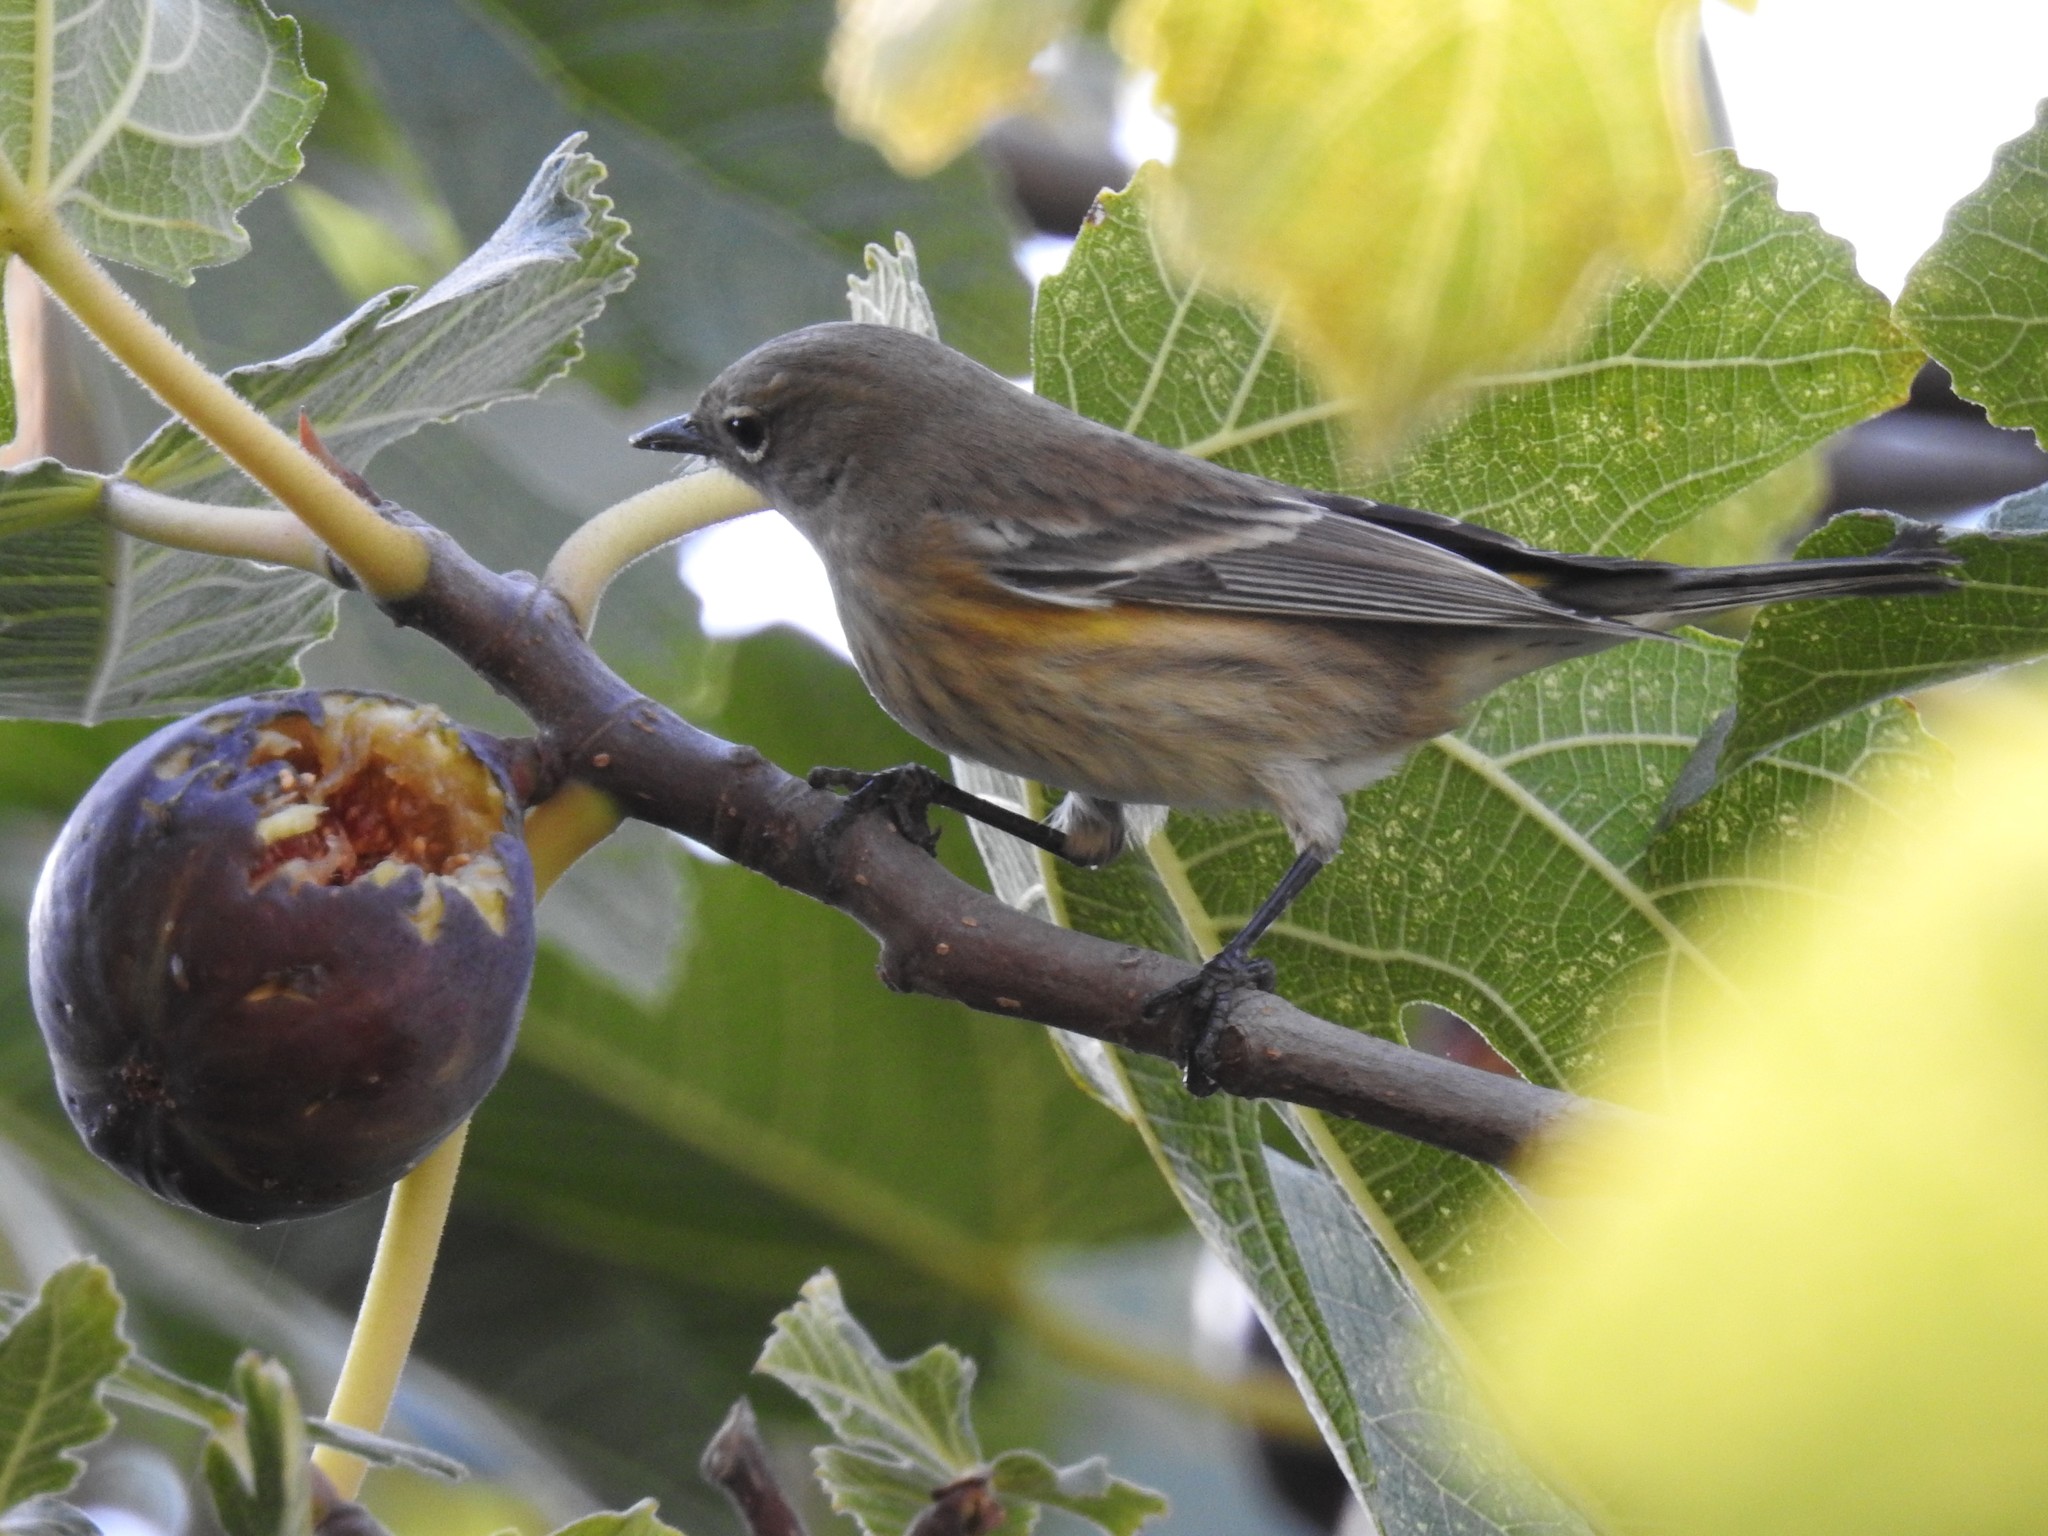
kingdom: Animalia
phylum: Chordata
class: Aves
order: Passeriformes
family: Parulidae
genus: Setophaga
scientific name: Setophaga coronata
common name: Myrtle warbler
